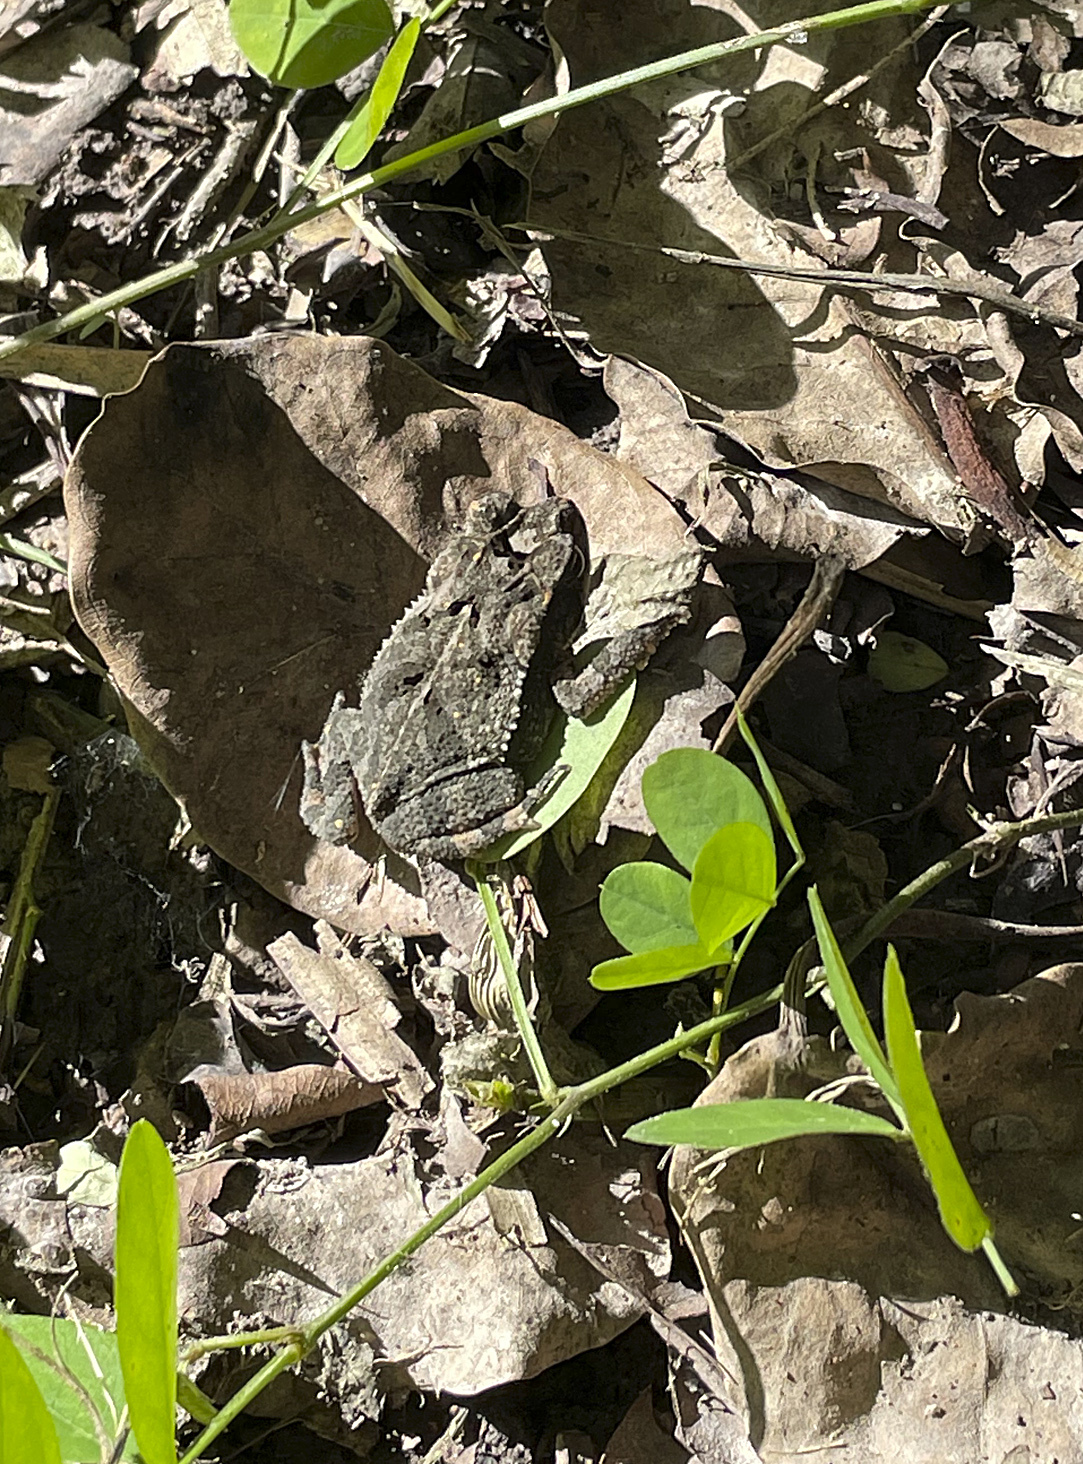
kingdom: Animalia
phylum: Chordata
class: Amphibia
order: Anura
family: Bufonidae
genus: Incilius
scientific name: Incilius valliceps
